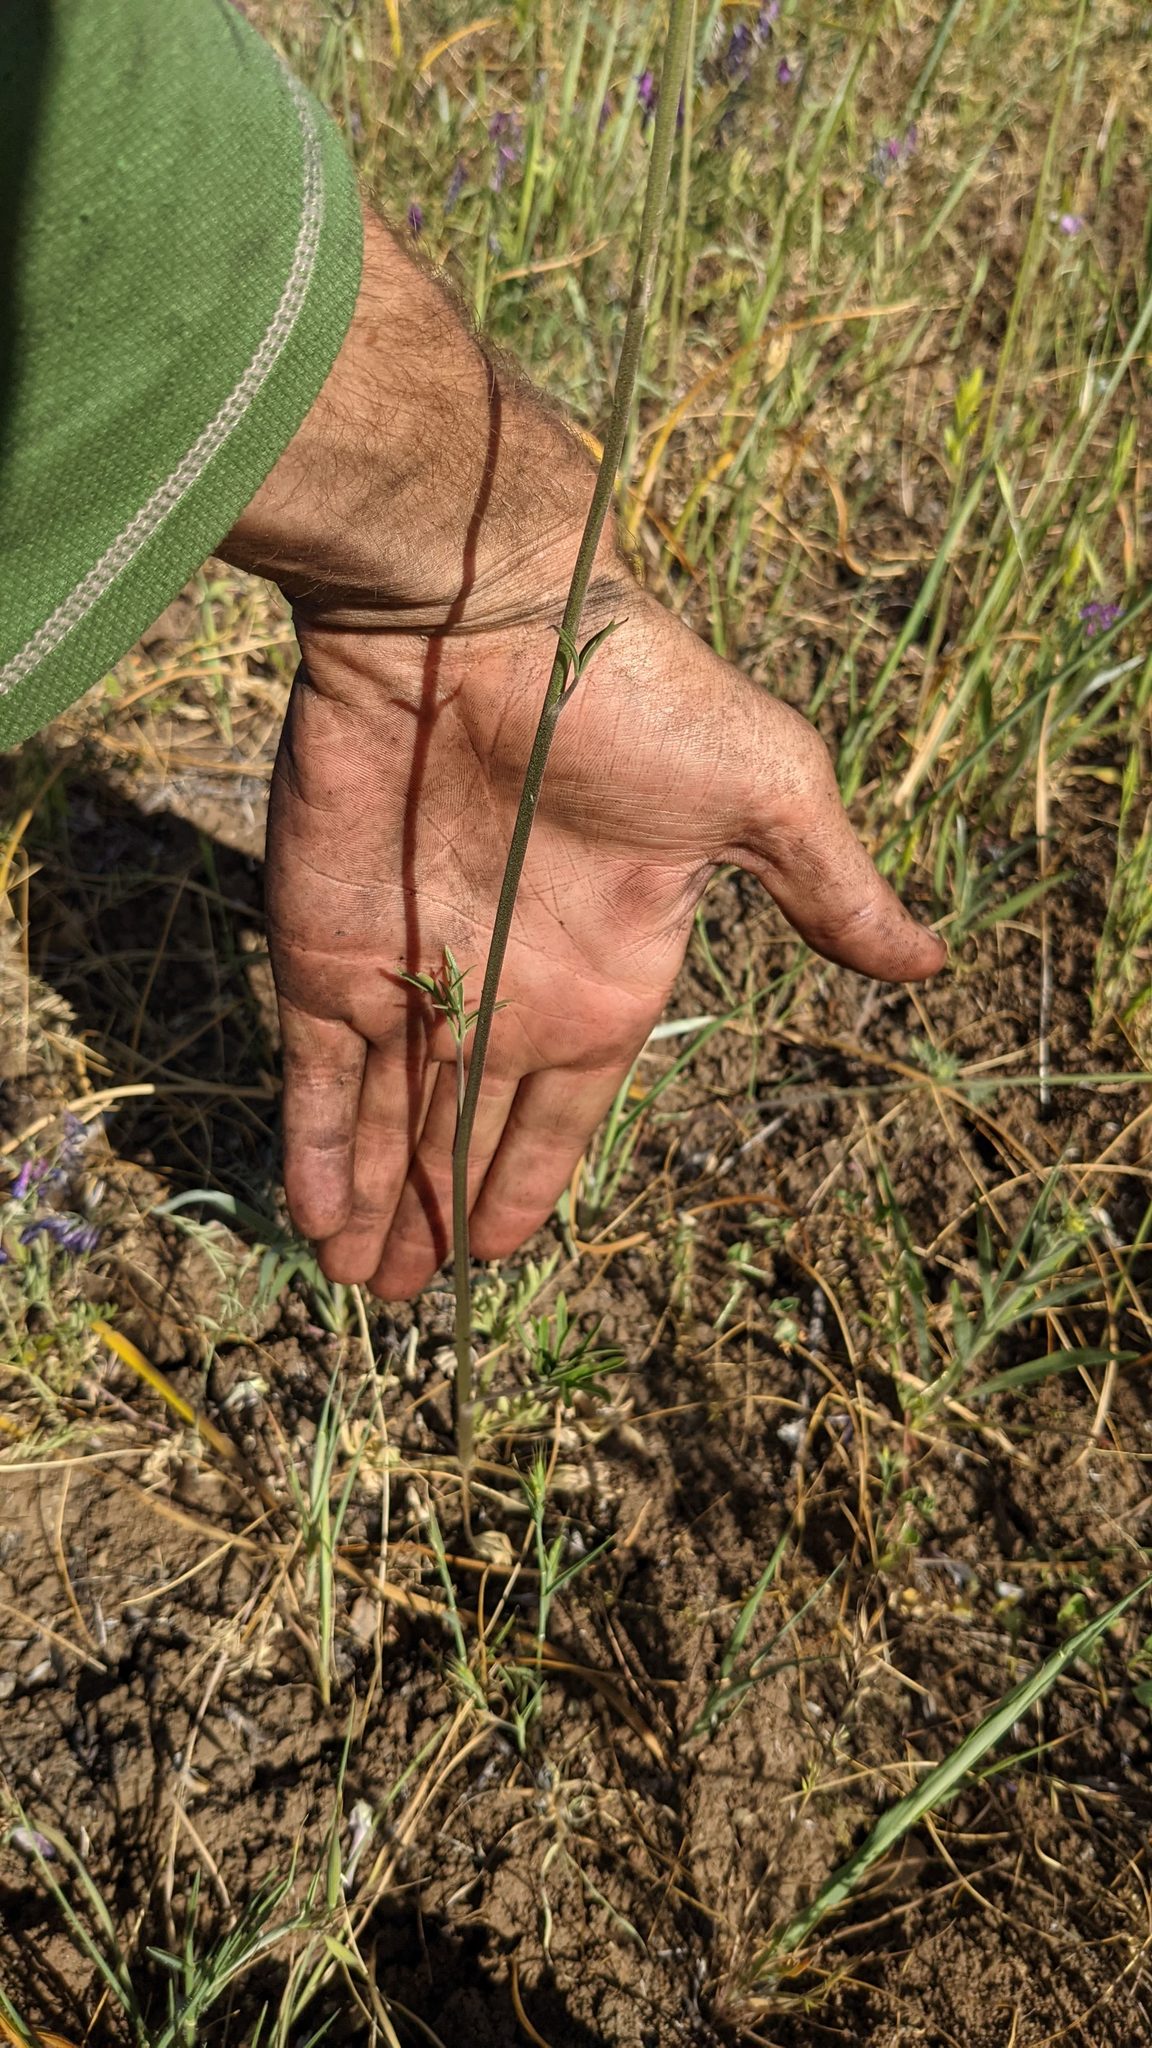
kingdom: Plantae
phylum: Tracheophyta
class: Magnoliopsida
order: Ranunculales
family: Ranunculaceae
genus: Delphinium
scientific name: Delphinium hesperium
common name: Western larkspur
